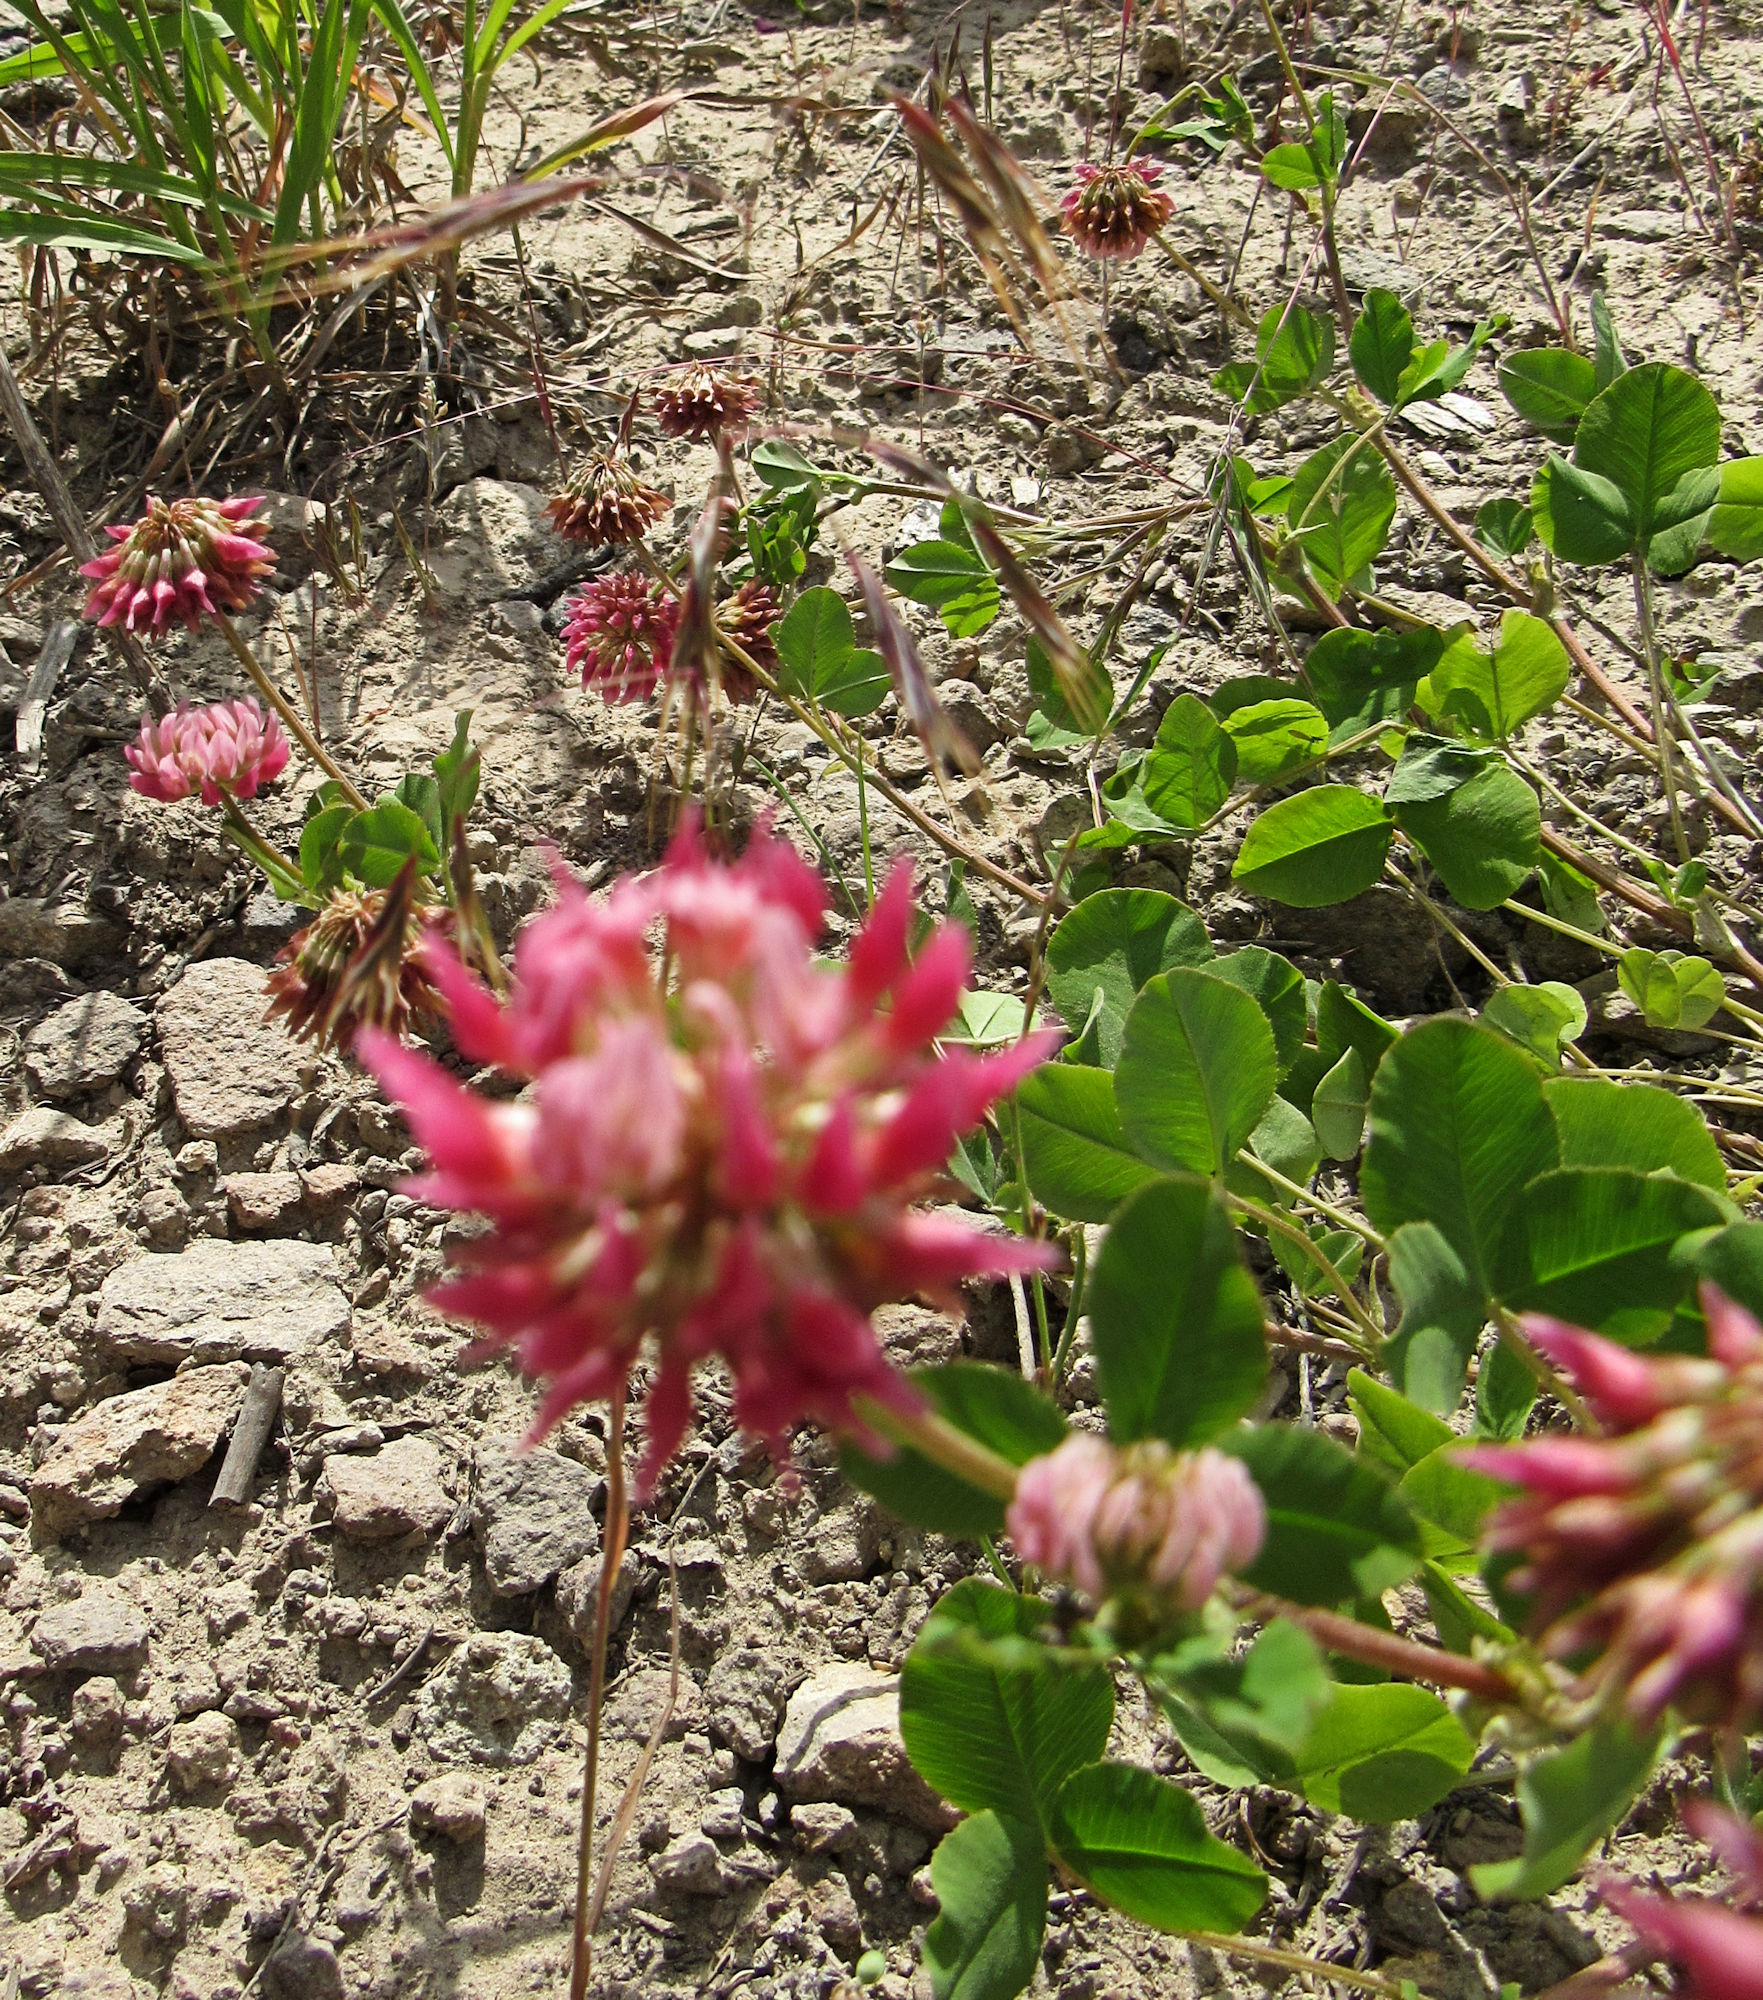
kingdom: Plantae
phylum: Tracheophyta
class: Magnoliopsida
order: Fabales
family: Fabaceae
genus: Trifolium
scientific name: Trifolium hybridum
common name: Alsike clover
